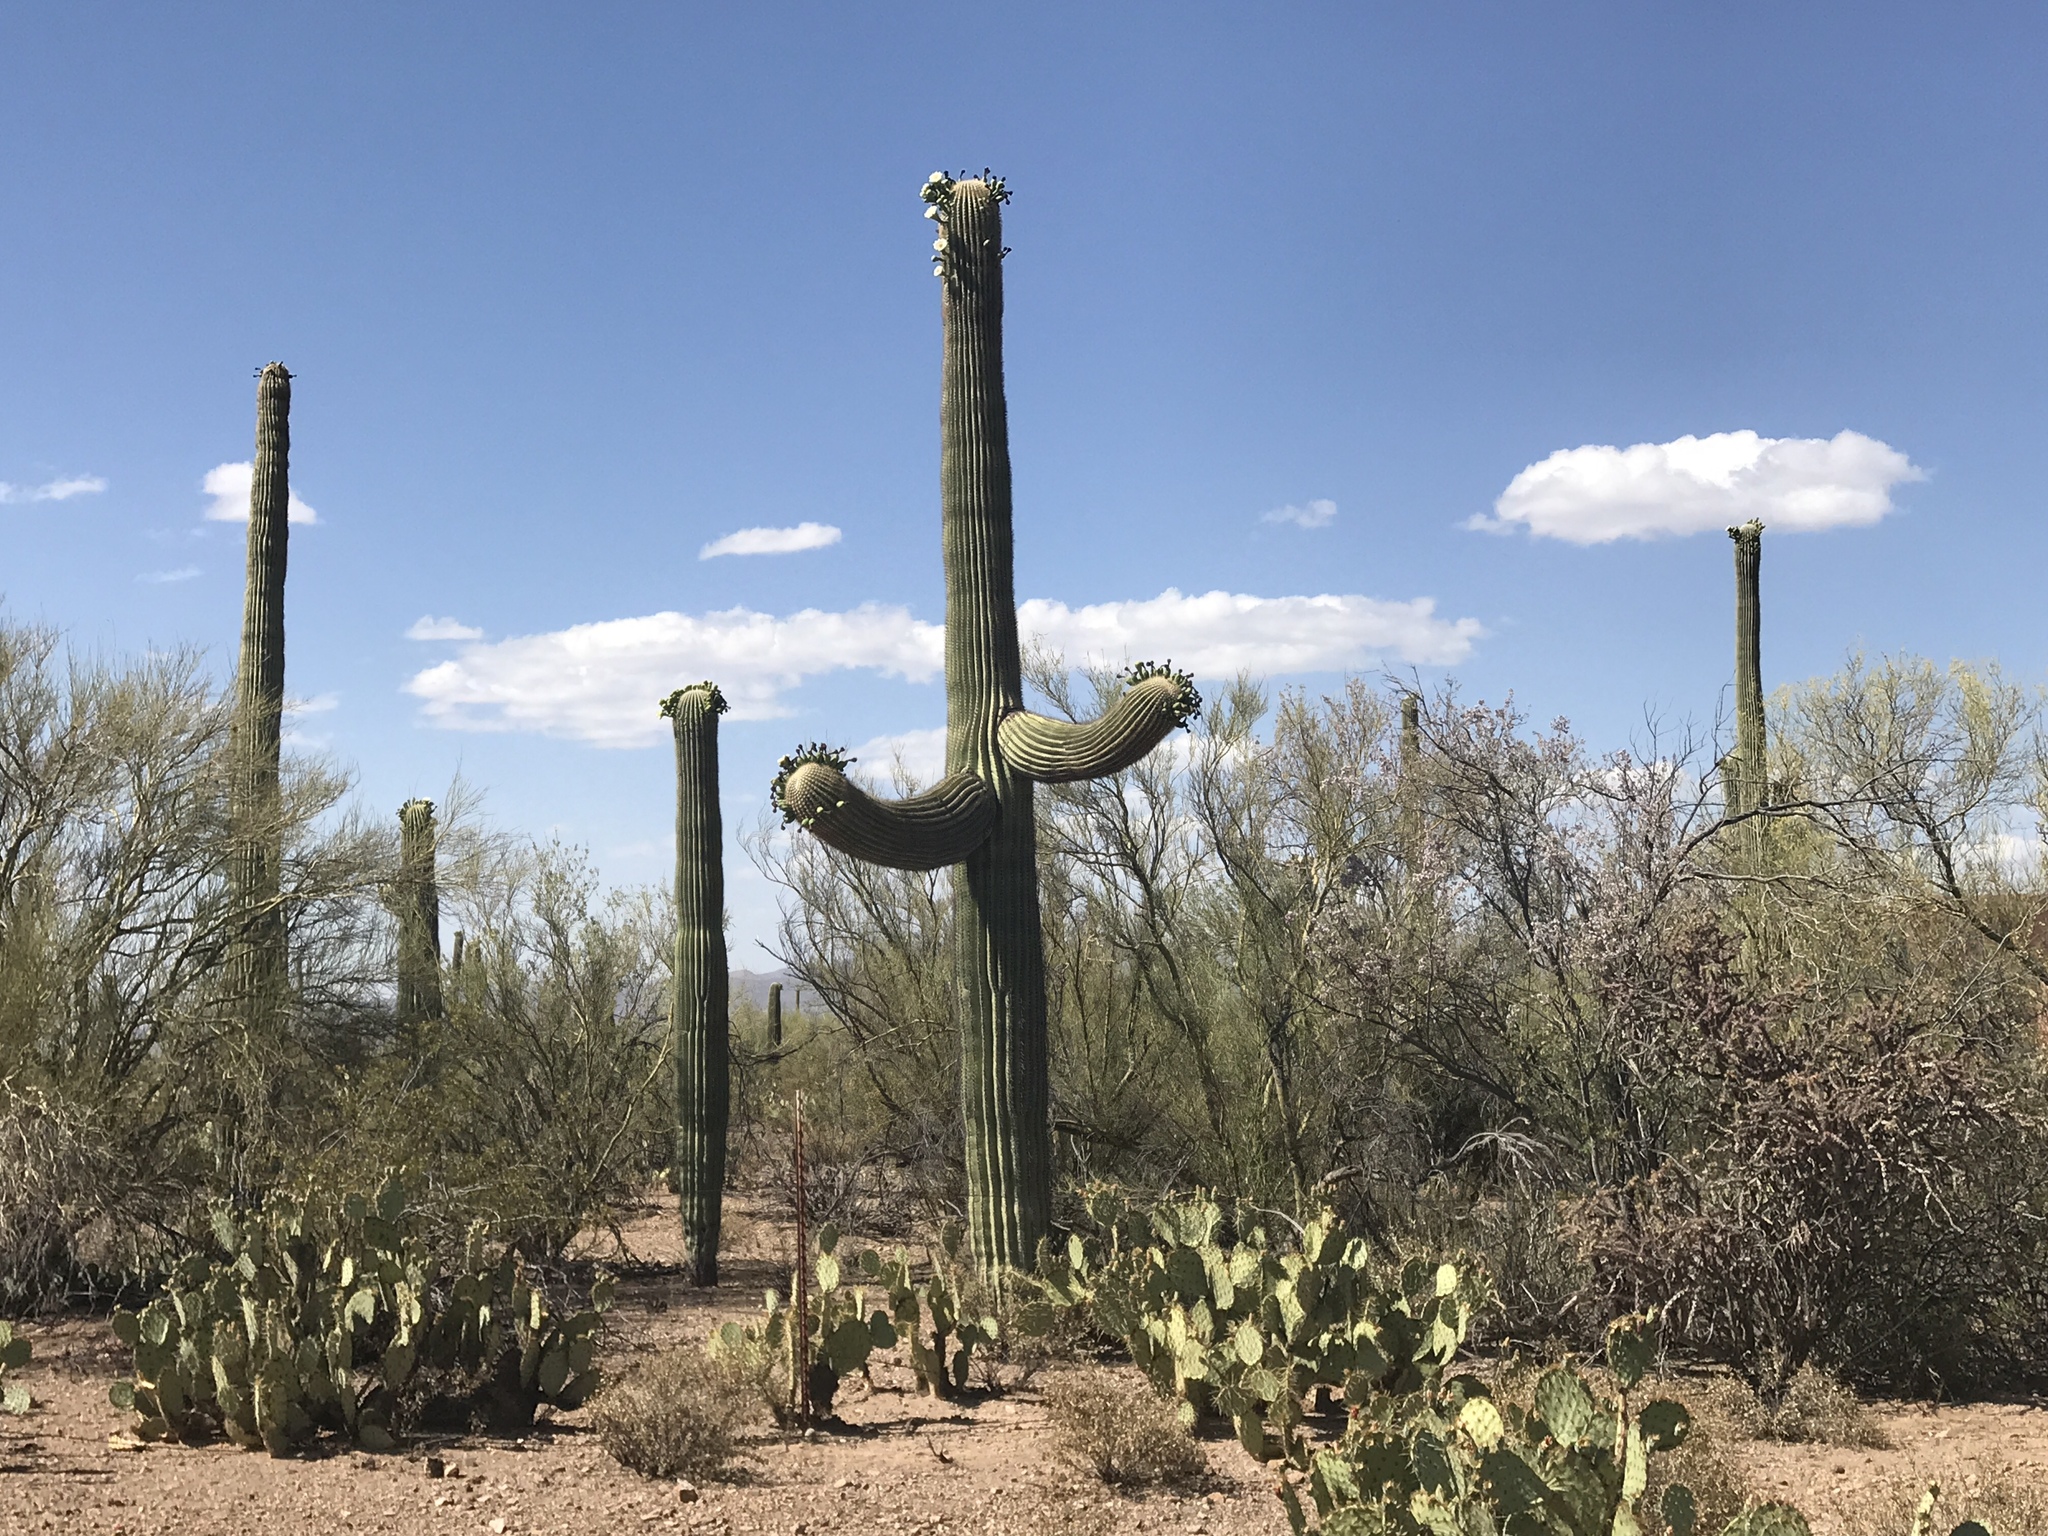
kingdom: Plantae
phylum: Tracheophyta
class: Magnoliopsida
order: Caryophyllales
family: Cactaceae
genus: Carnegiea
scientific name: Carnegiea gigantea
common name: Saguaro
